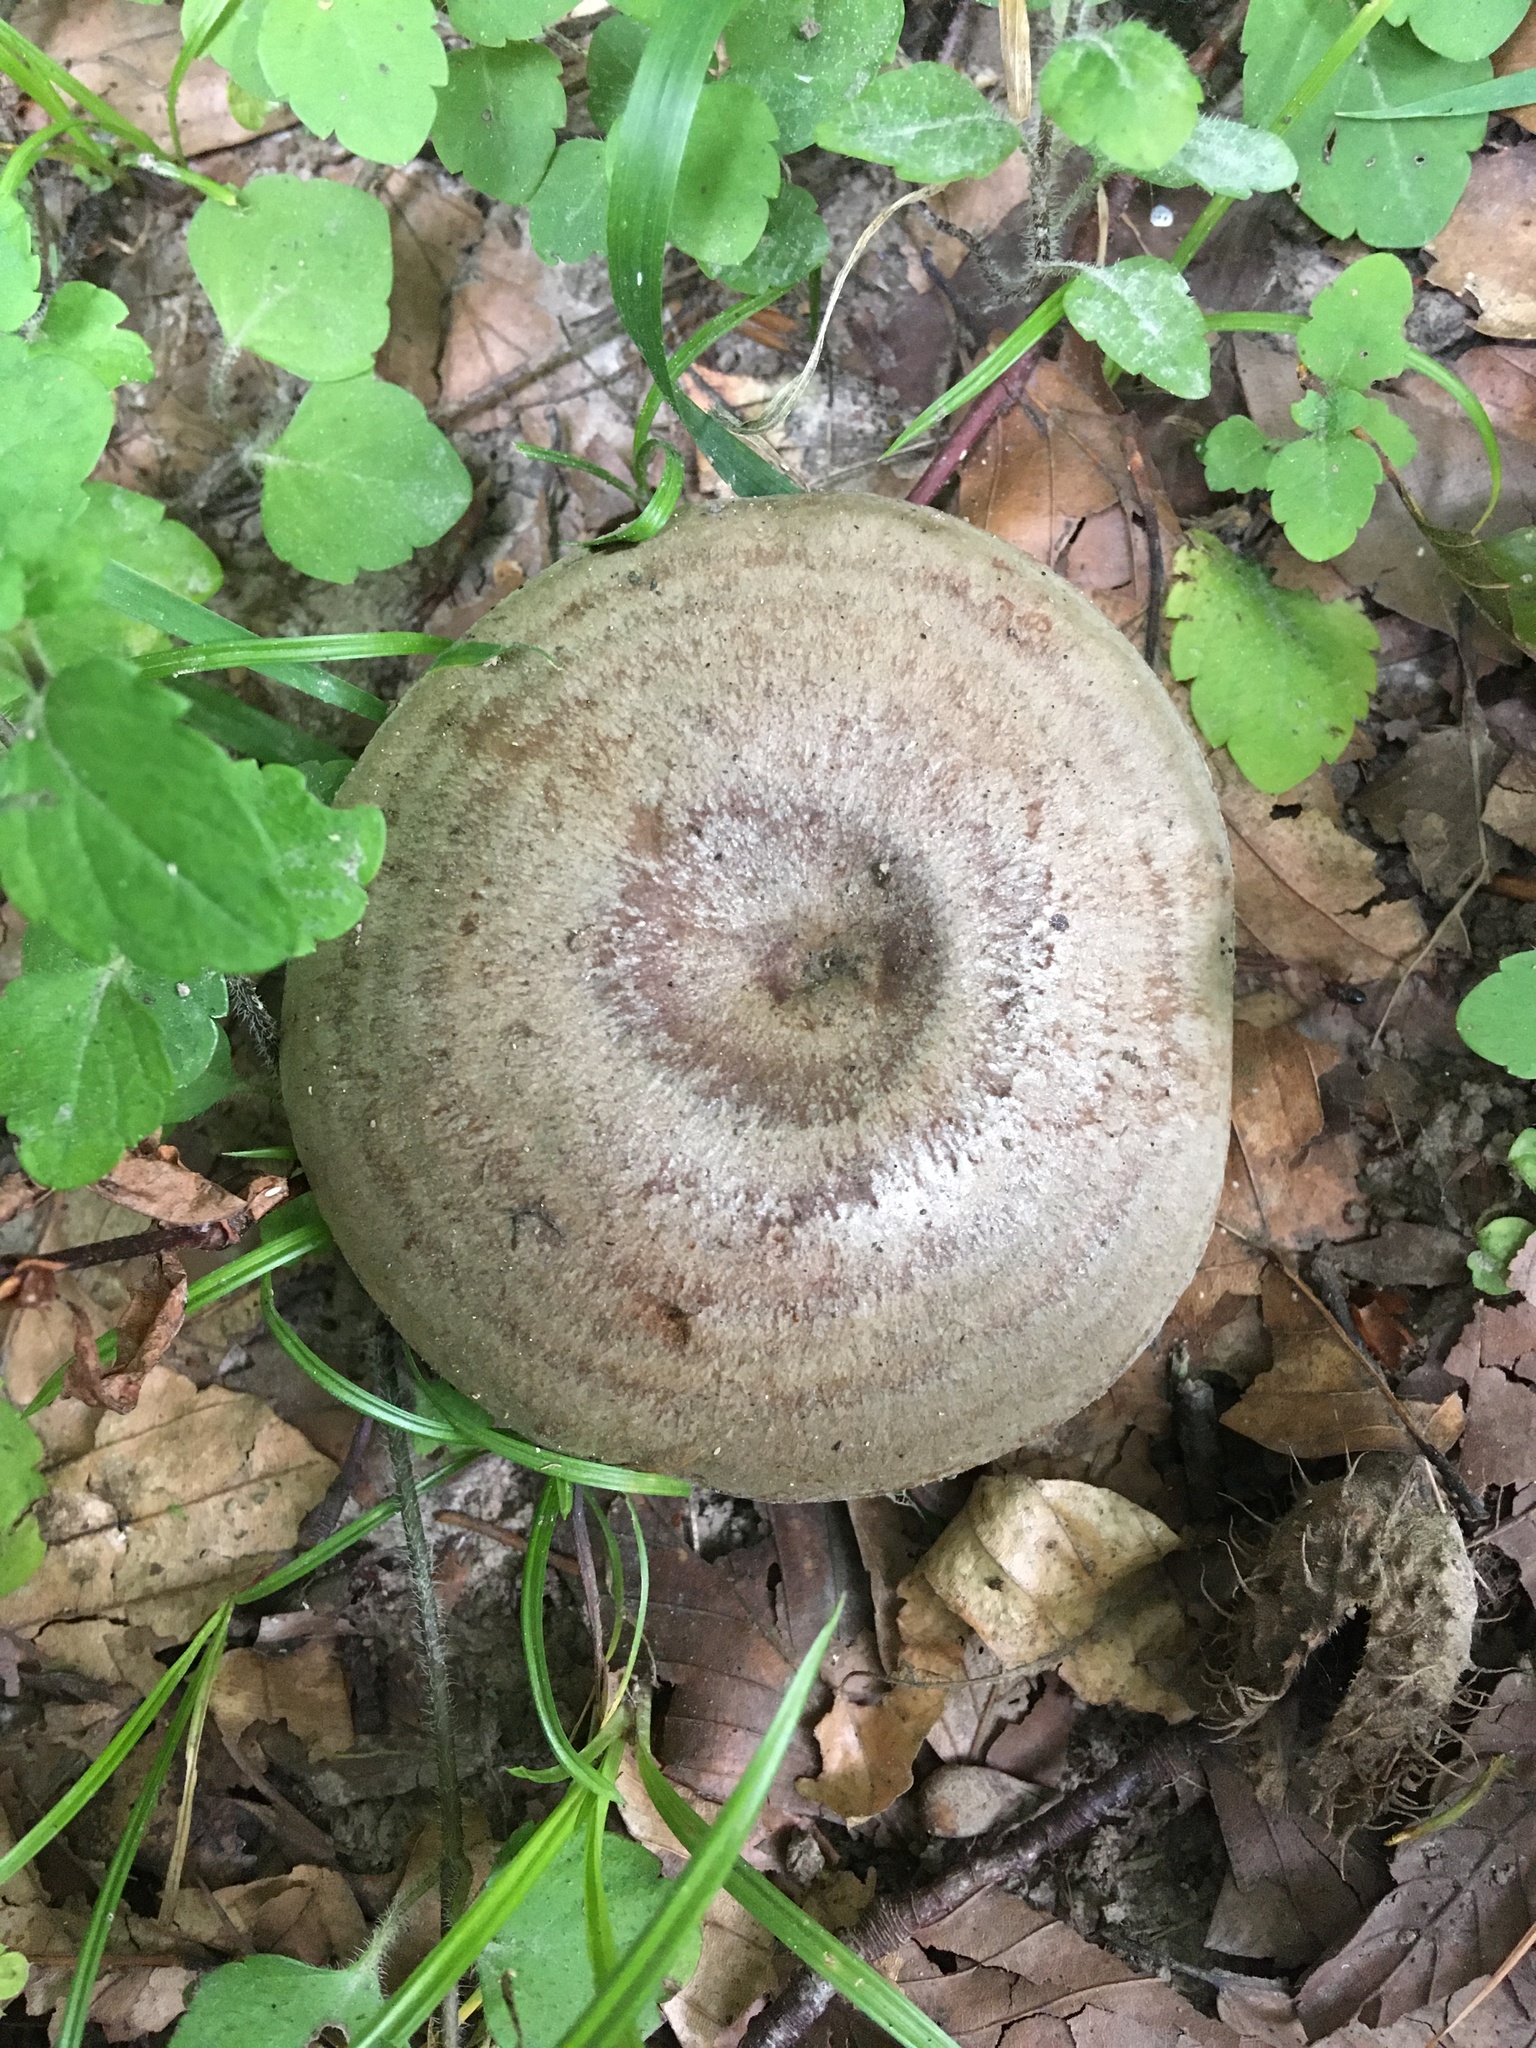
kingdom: Fungi
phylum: Basidiomycota
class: Agaricomycetes
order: Russulales
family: Russulaceae
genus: Lactarius
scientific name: Lactarius blennius
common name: Beech milkcap
